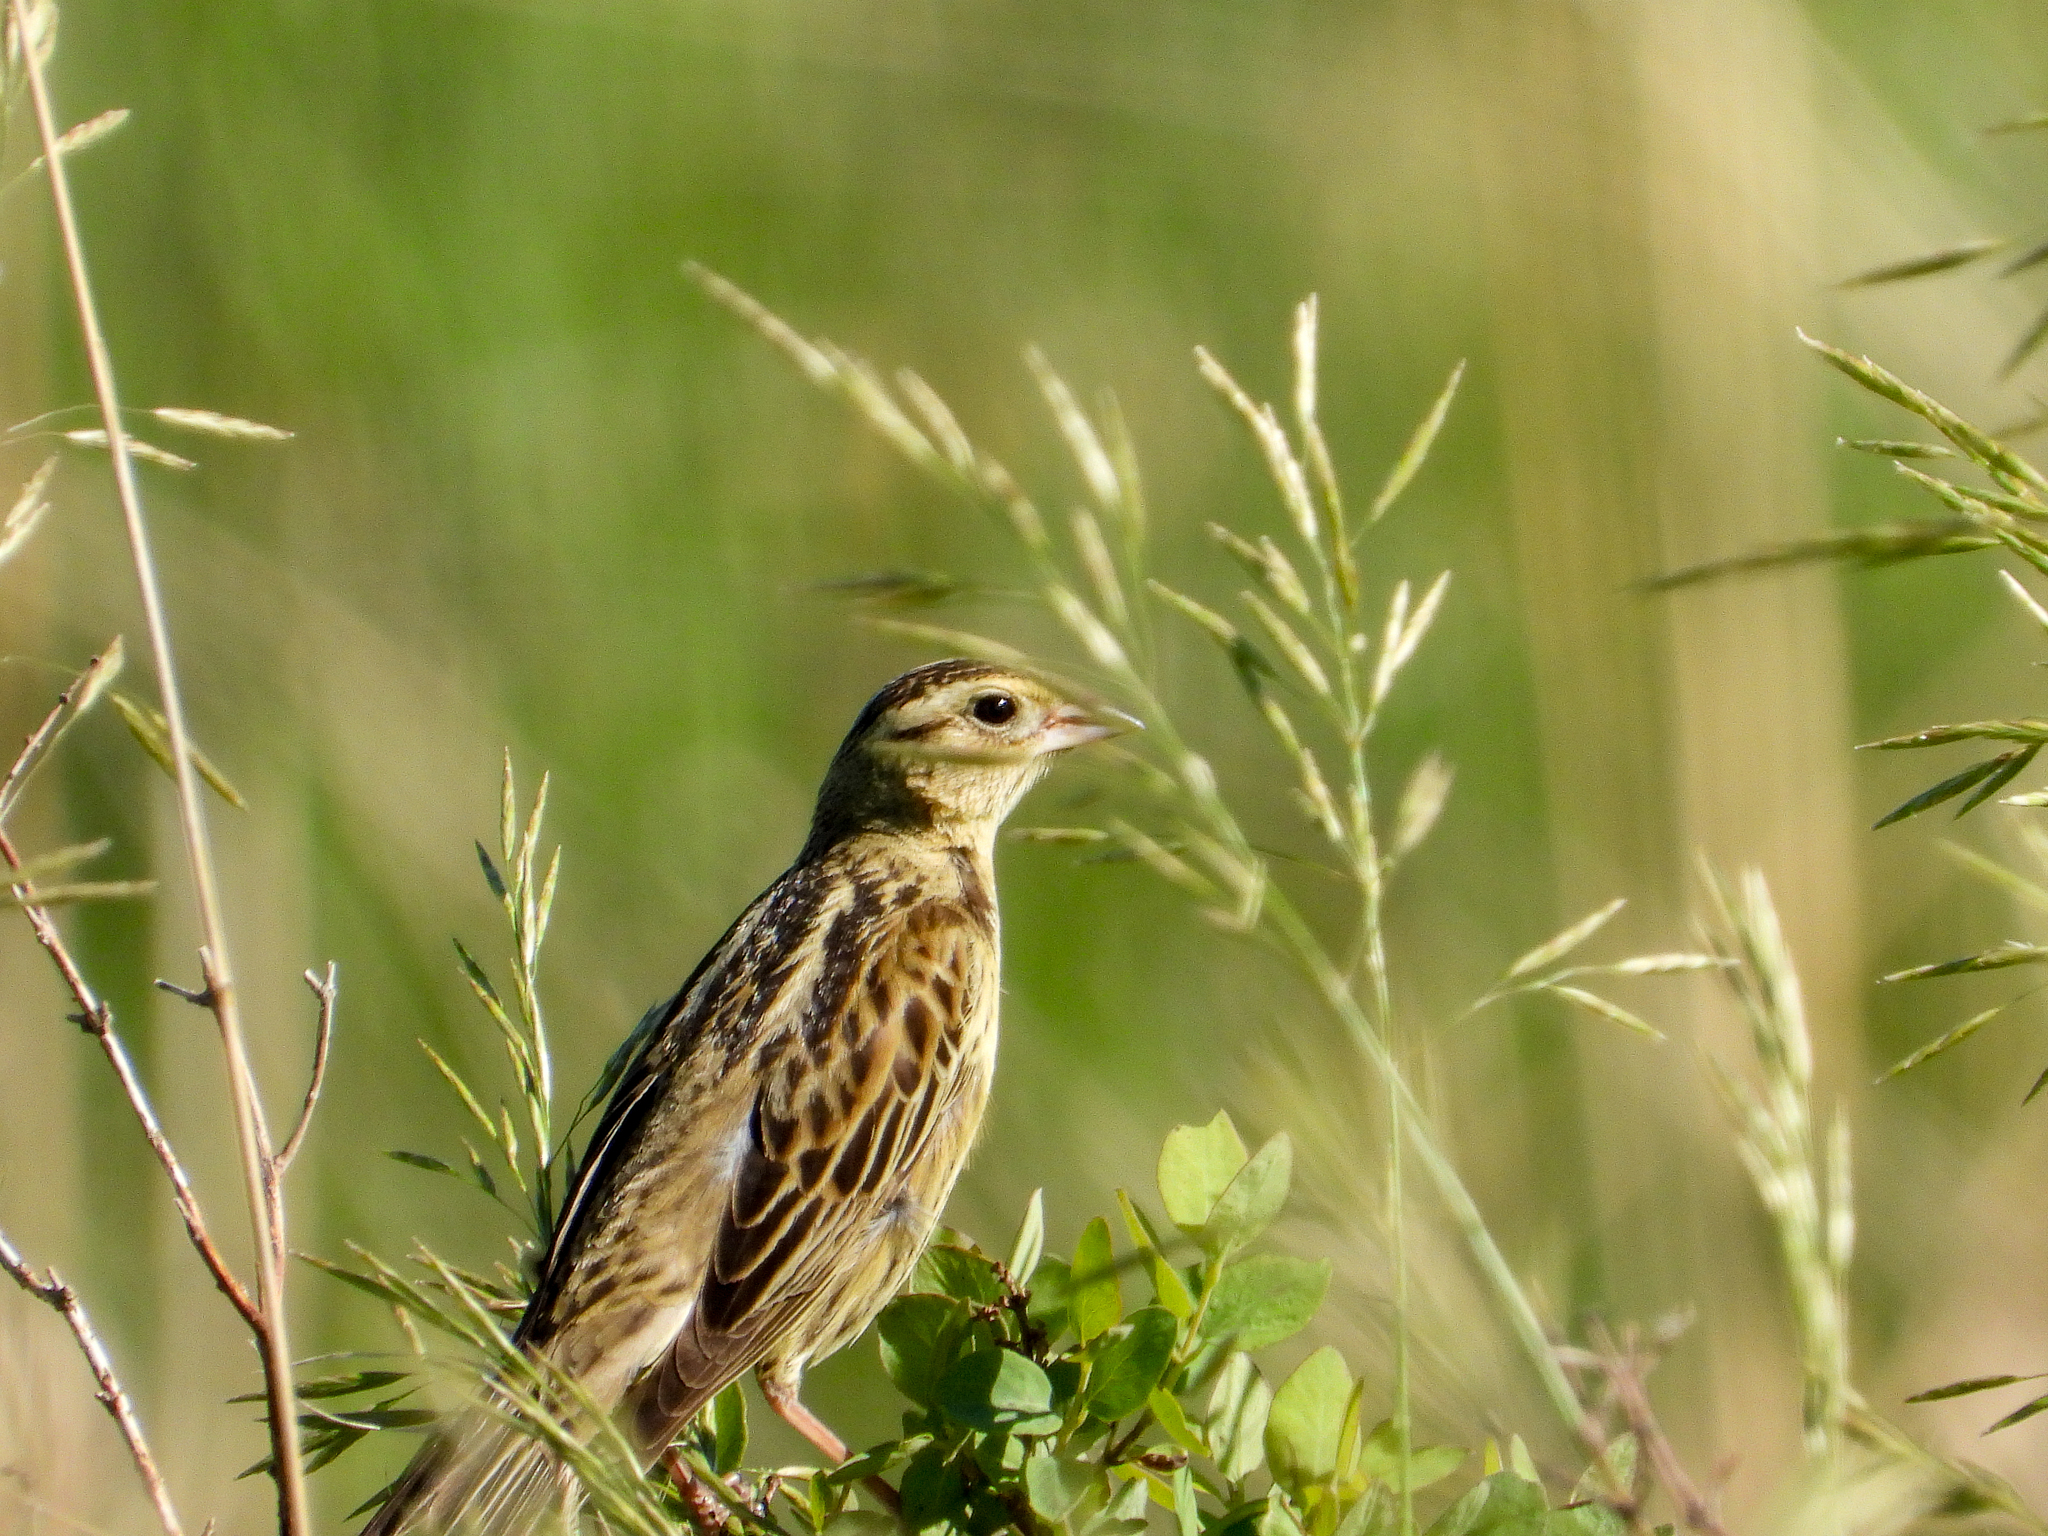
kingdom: Animalia
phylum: Chordata
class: Aves
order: Passeriformes
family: Icteridae
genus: Dolichonyx
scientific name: Dolichonyx oryzivorus
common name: Bobolink
